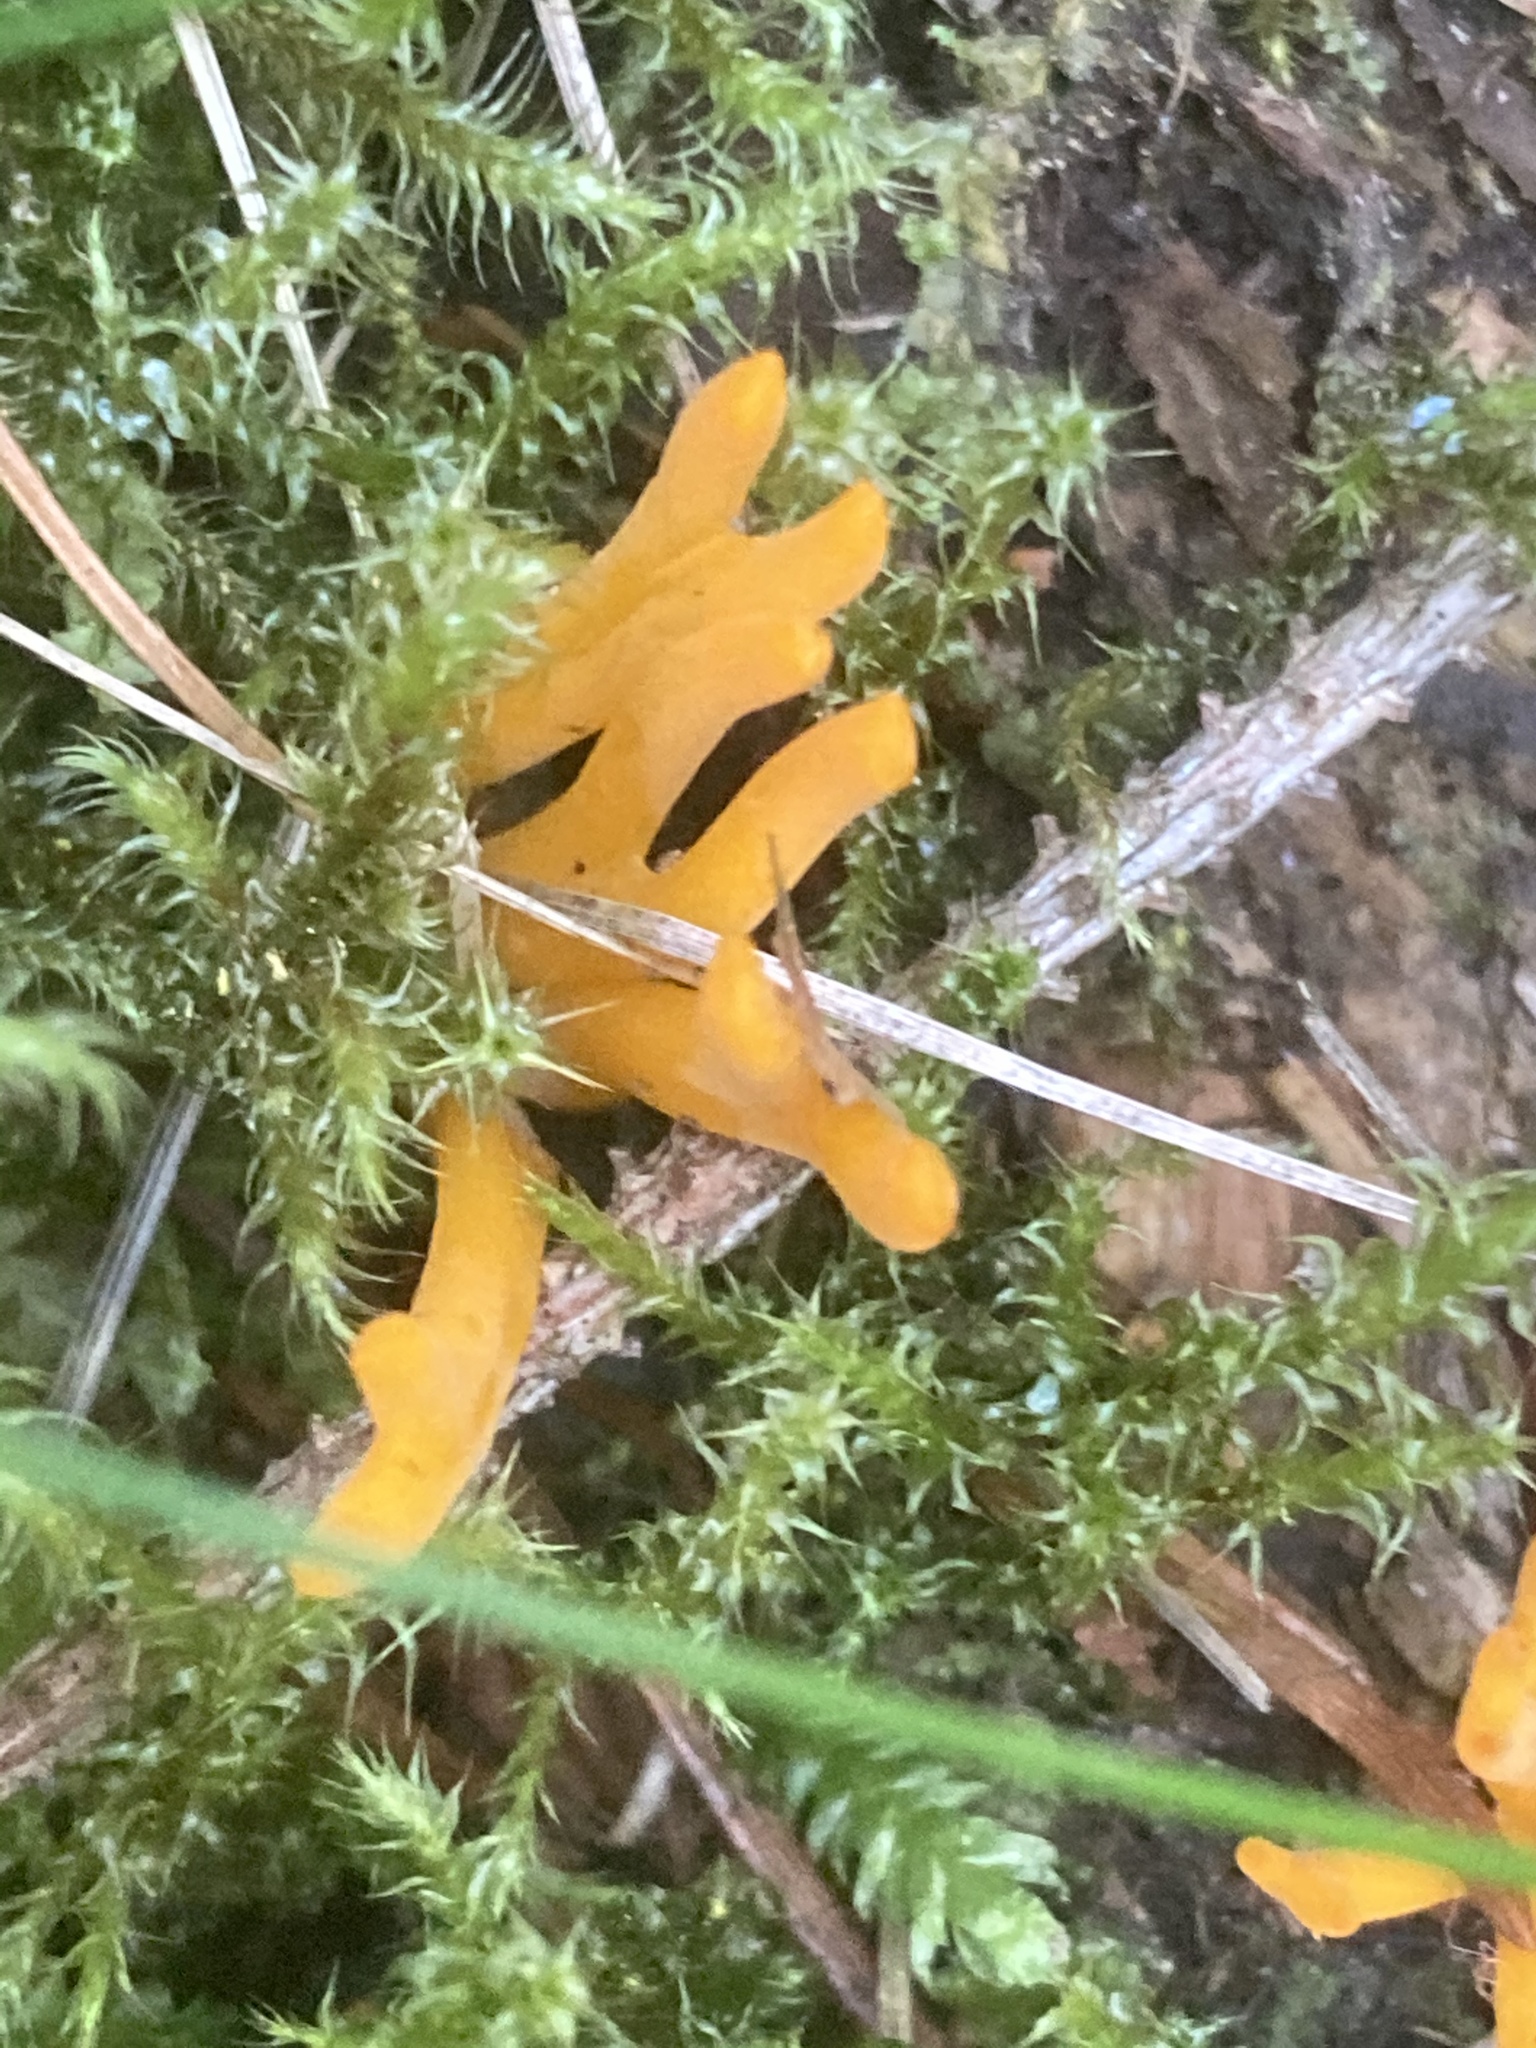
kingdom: Fungi
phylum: Basidiomycota
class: Dacrymycetes
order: Dacrymycetales
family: Dacrymycetaceae
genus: Calocera
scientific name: Calocera viscosa
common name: Yellow stagshorn
